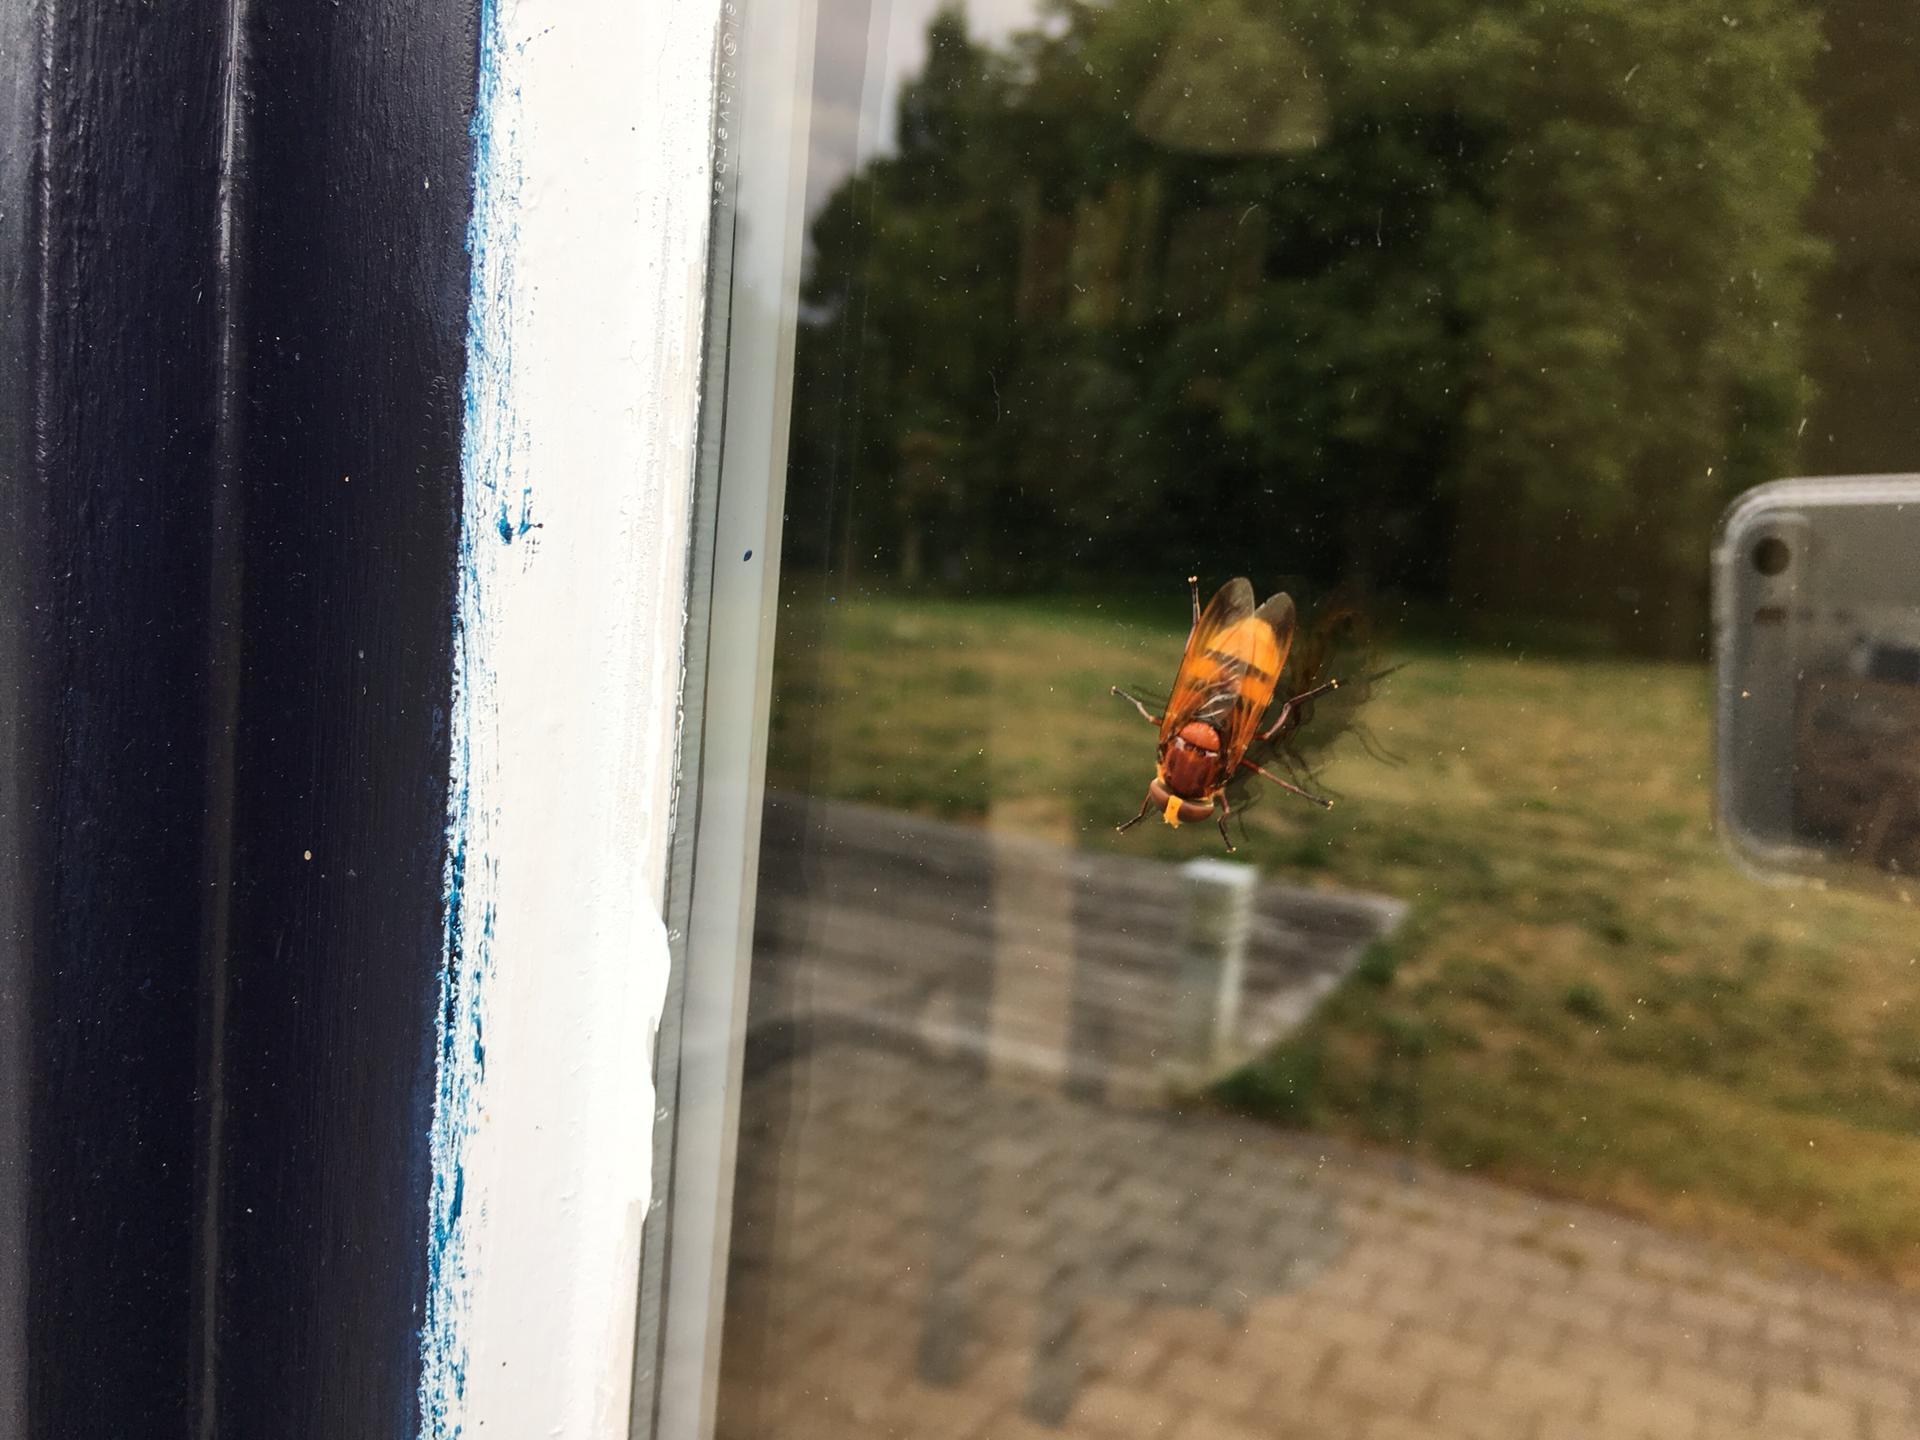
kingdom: Animalia
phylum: Arthropoda
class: Insecta
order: Diptera
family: Syrphidae
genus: Volucella
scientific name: Volucella zonaria
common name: Hornet hoverfly
